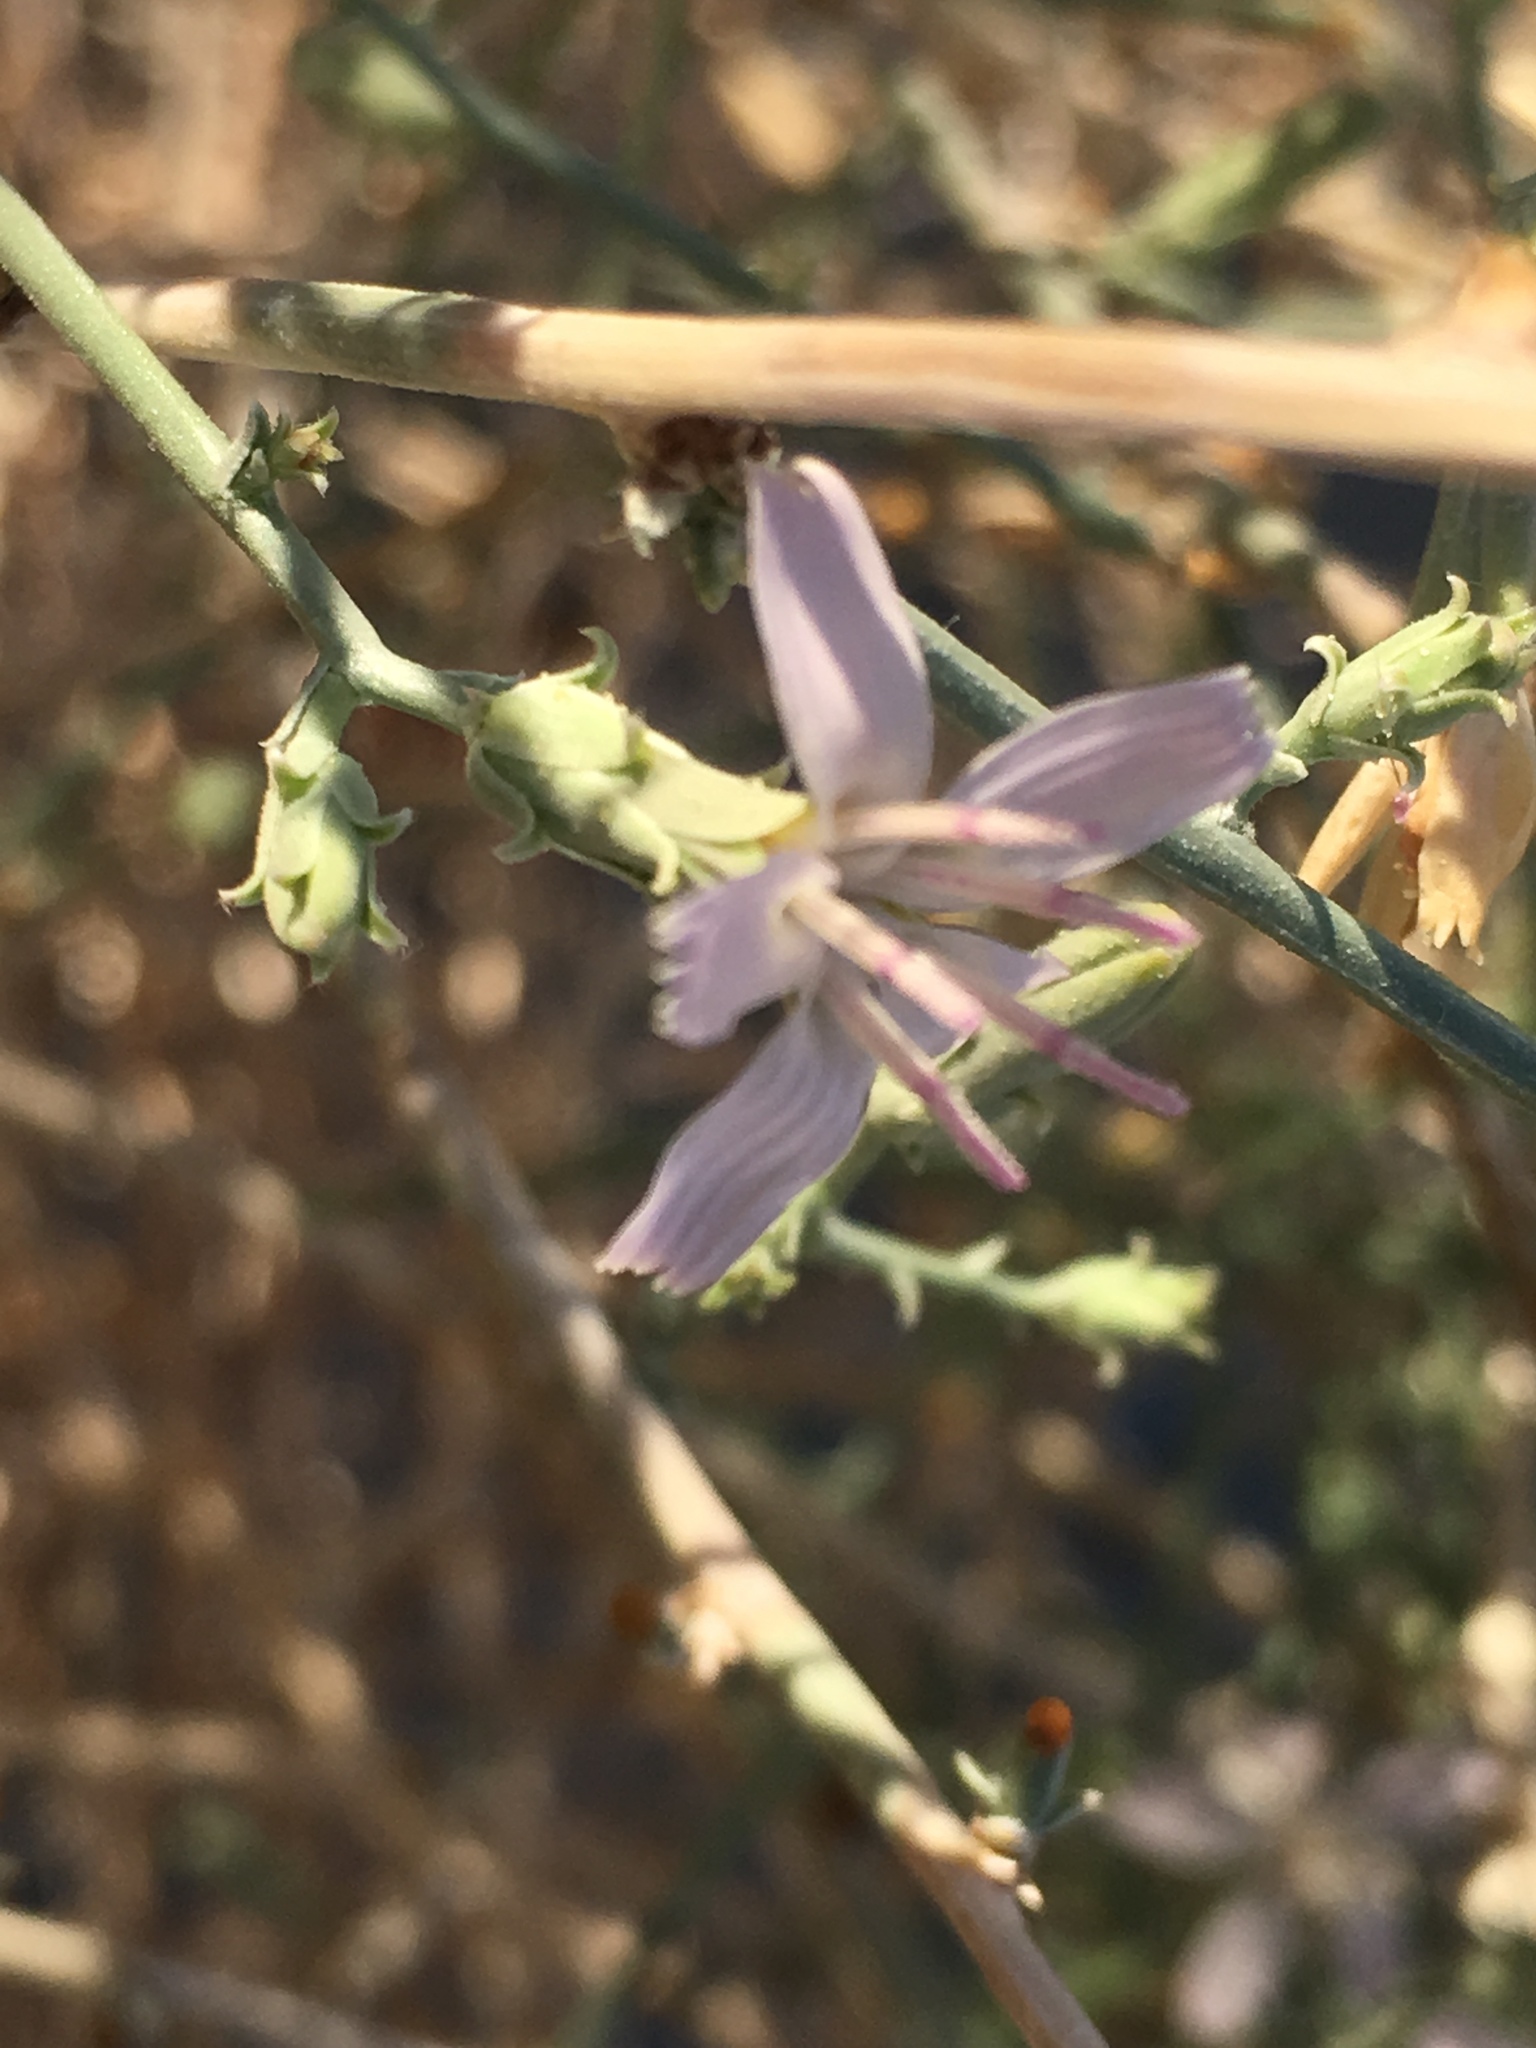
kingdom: Plantae
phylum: Tracheophyta
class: Magnoliopsida
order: Asterales
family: Asteraceae
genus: Stephanomeria
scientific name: Stephanomeria pauciflora
